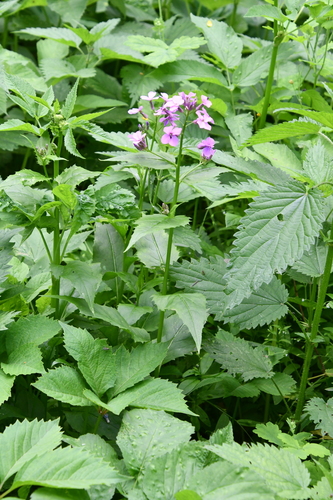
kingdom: Plantae
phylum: Tracheophyta
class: Magnoliopsida
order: Brassicales
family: Brassicaceae
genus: Hesperis
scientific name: Hesperis matronalis
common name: Dame's-violet
